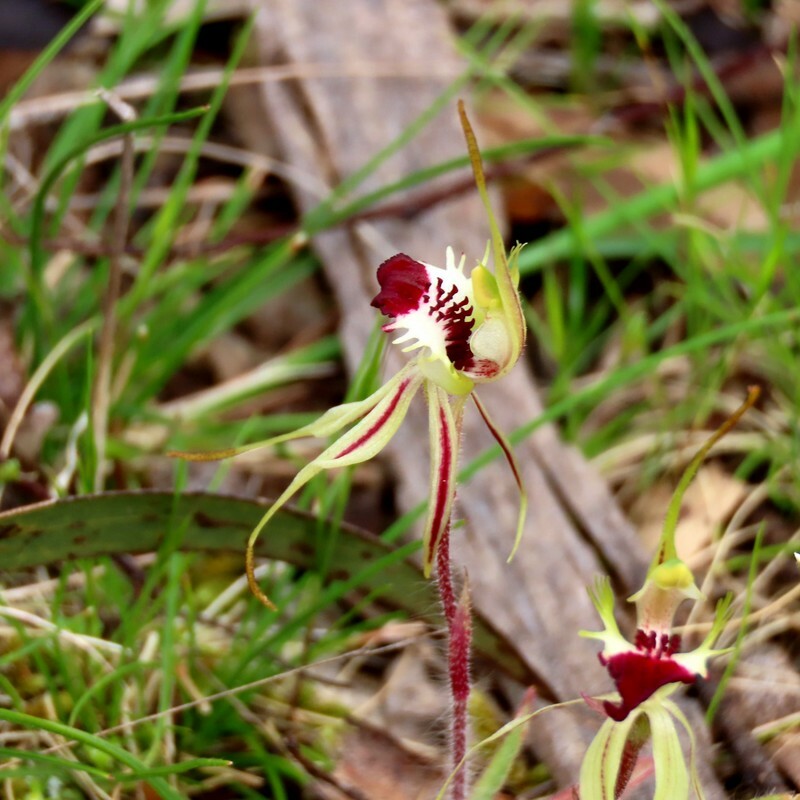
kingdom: Plantae
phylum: Tracheophyta
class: Liliopsida
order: Asparagales
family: Orchidaceae
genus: Caladenia
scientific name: Caladenia parva
